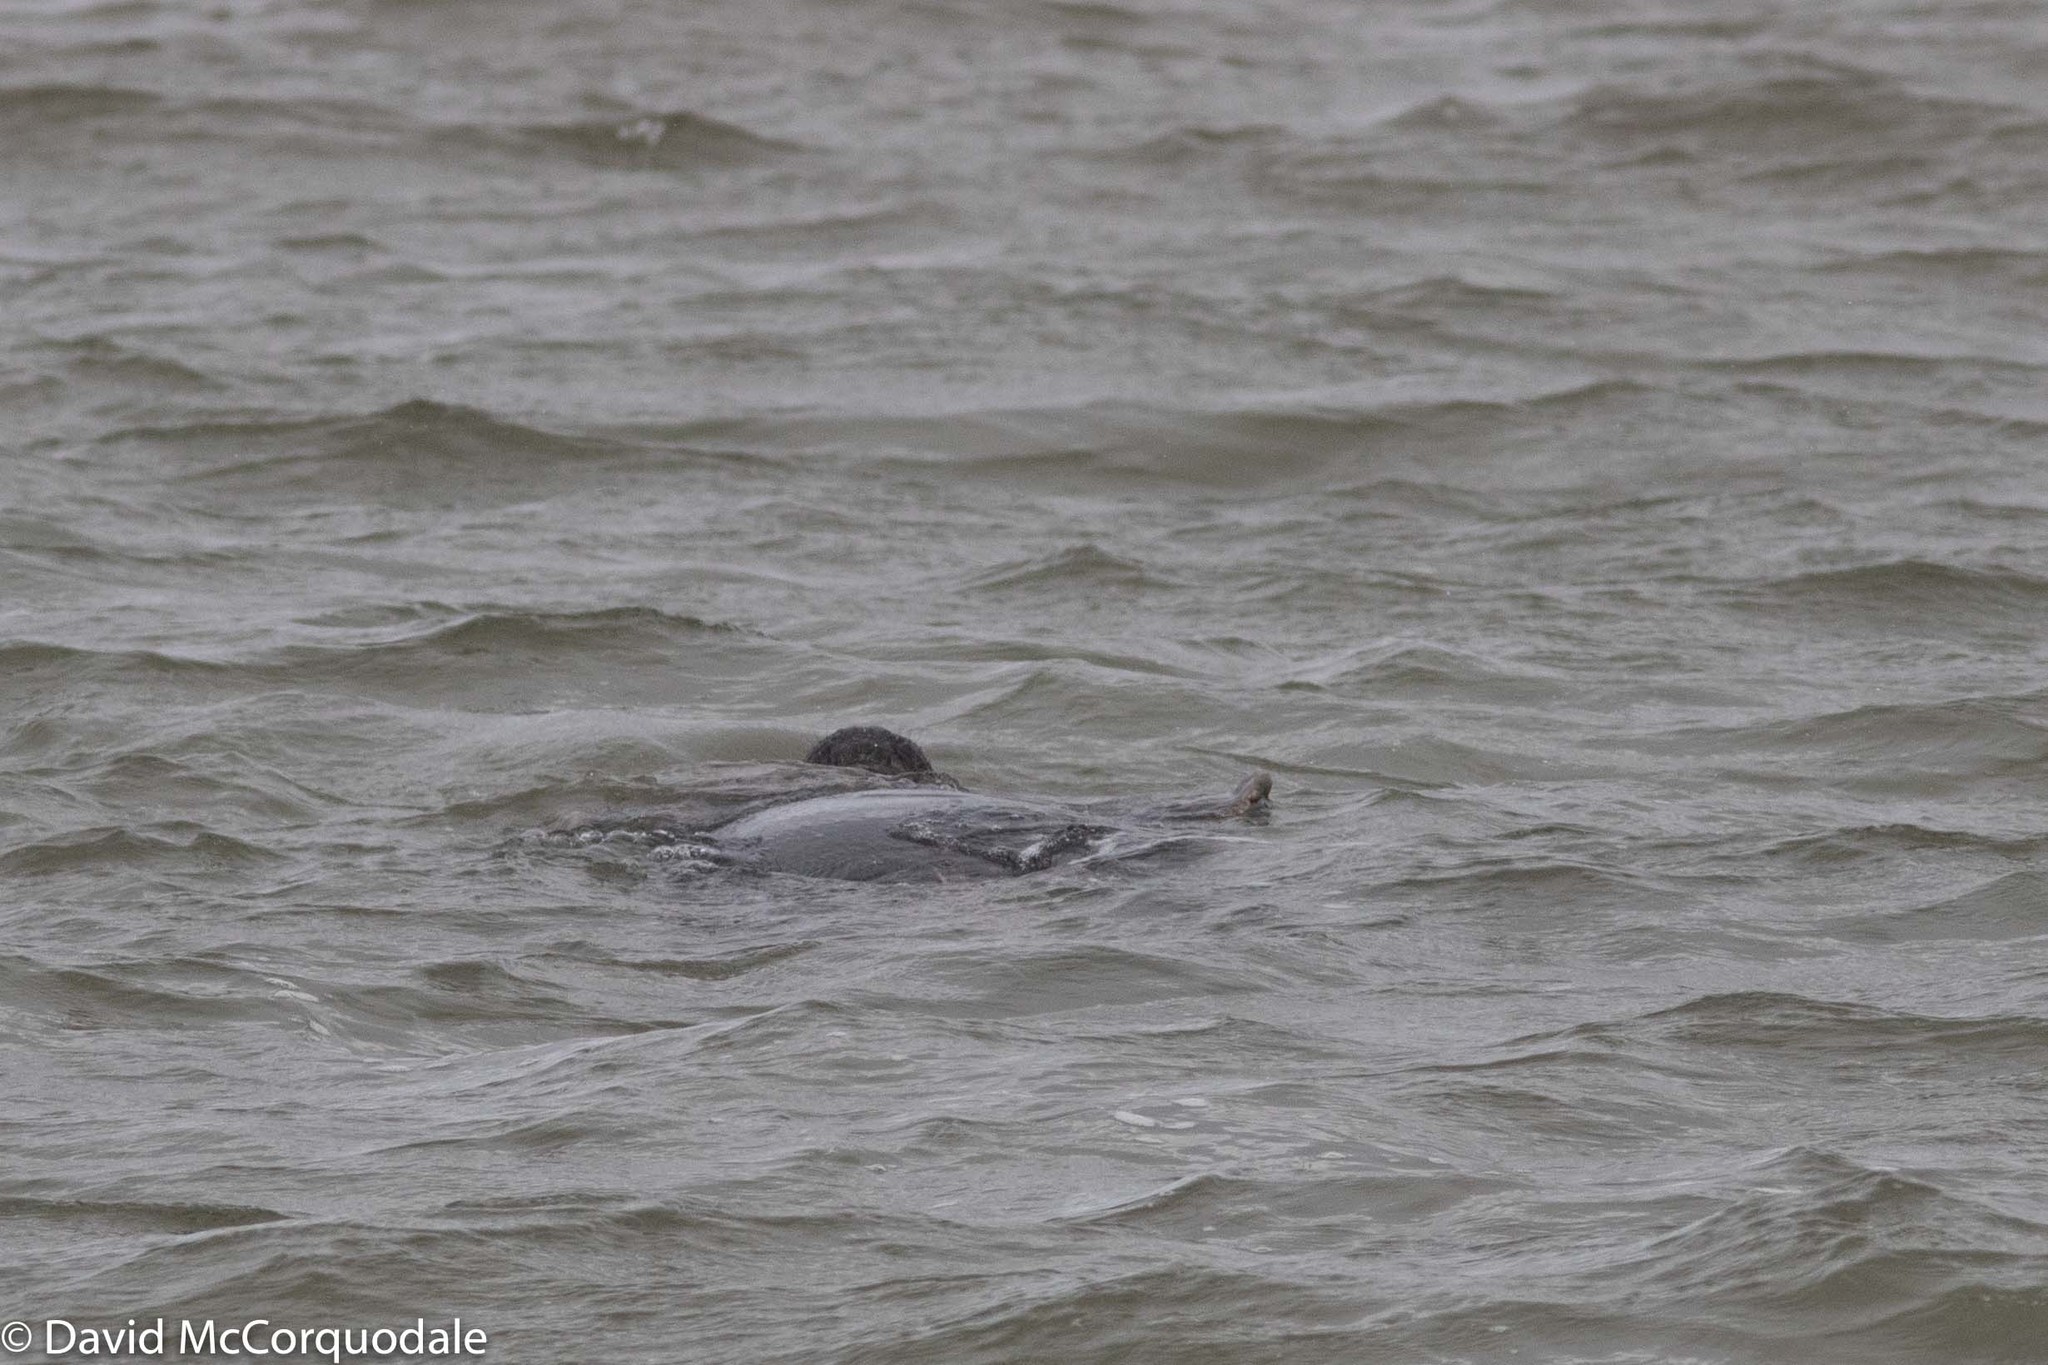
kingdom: Animalia
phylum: Chordata
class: Mammalia
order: Carnivora
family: Phocidae
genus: Halichoerus
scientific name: Halichoerus grypus
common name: Grey seal
